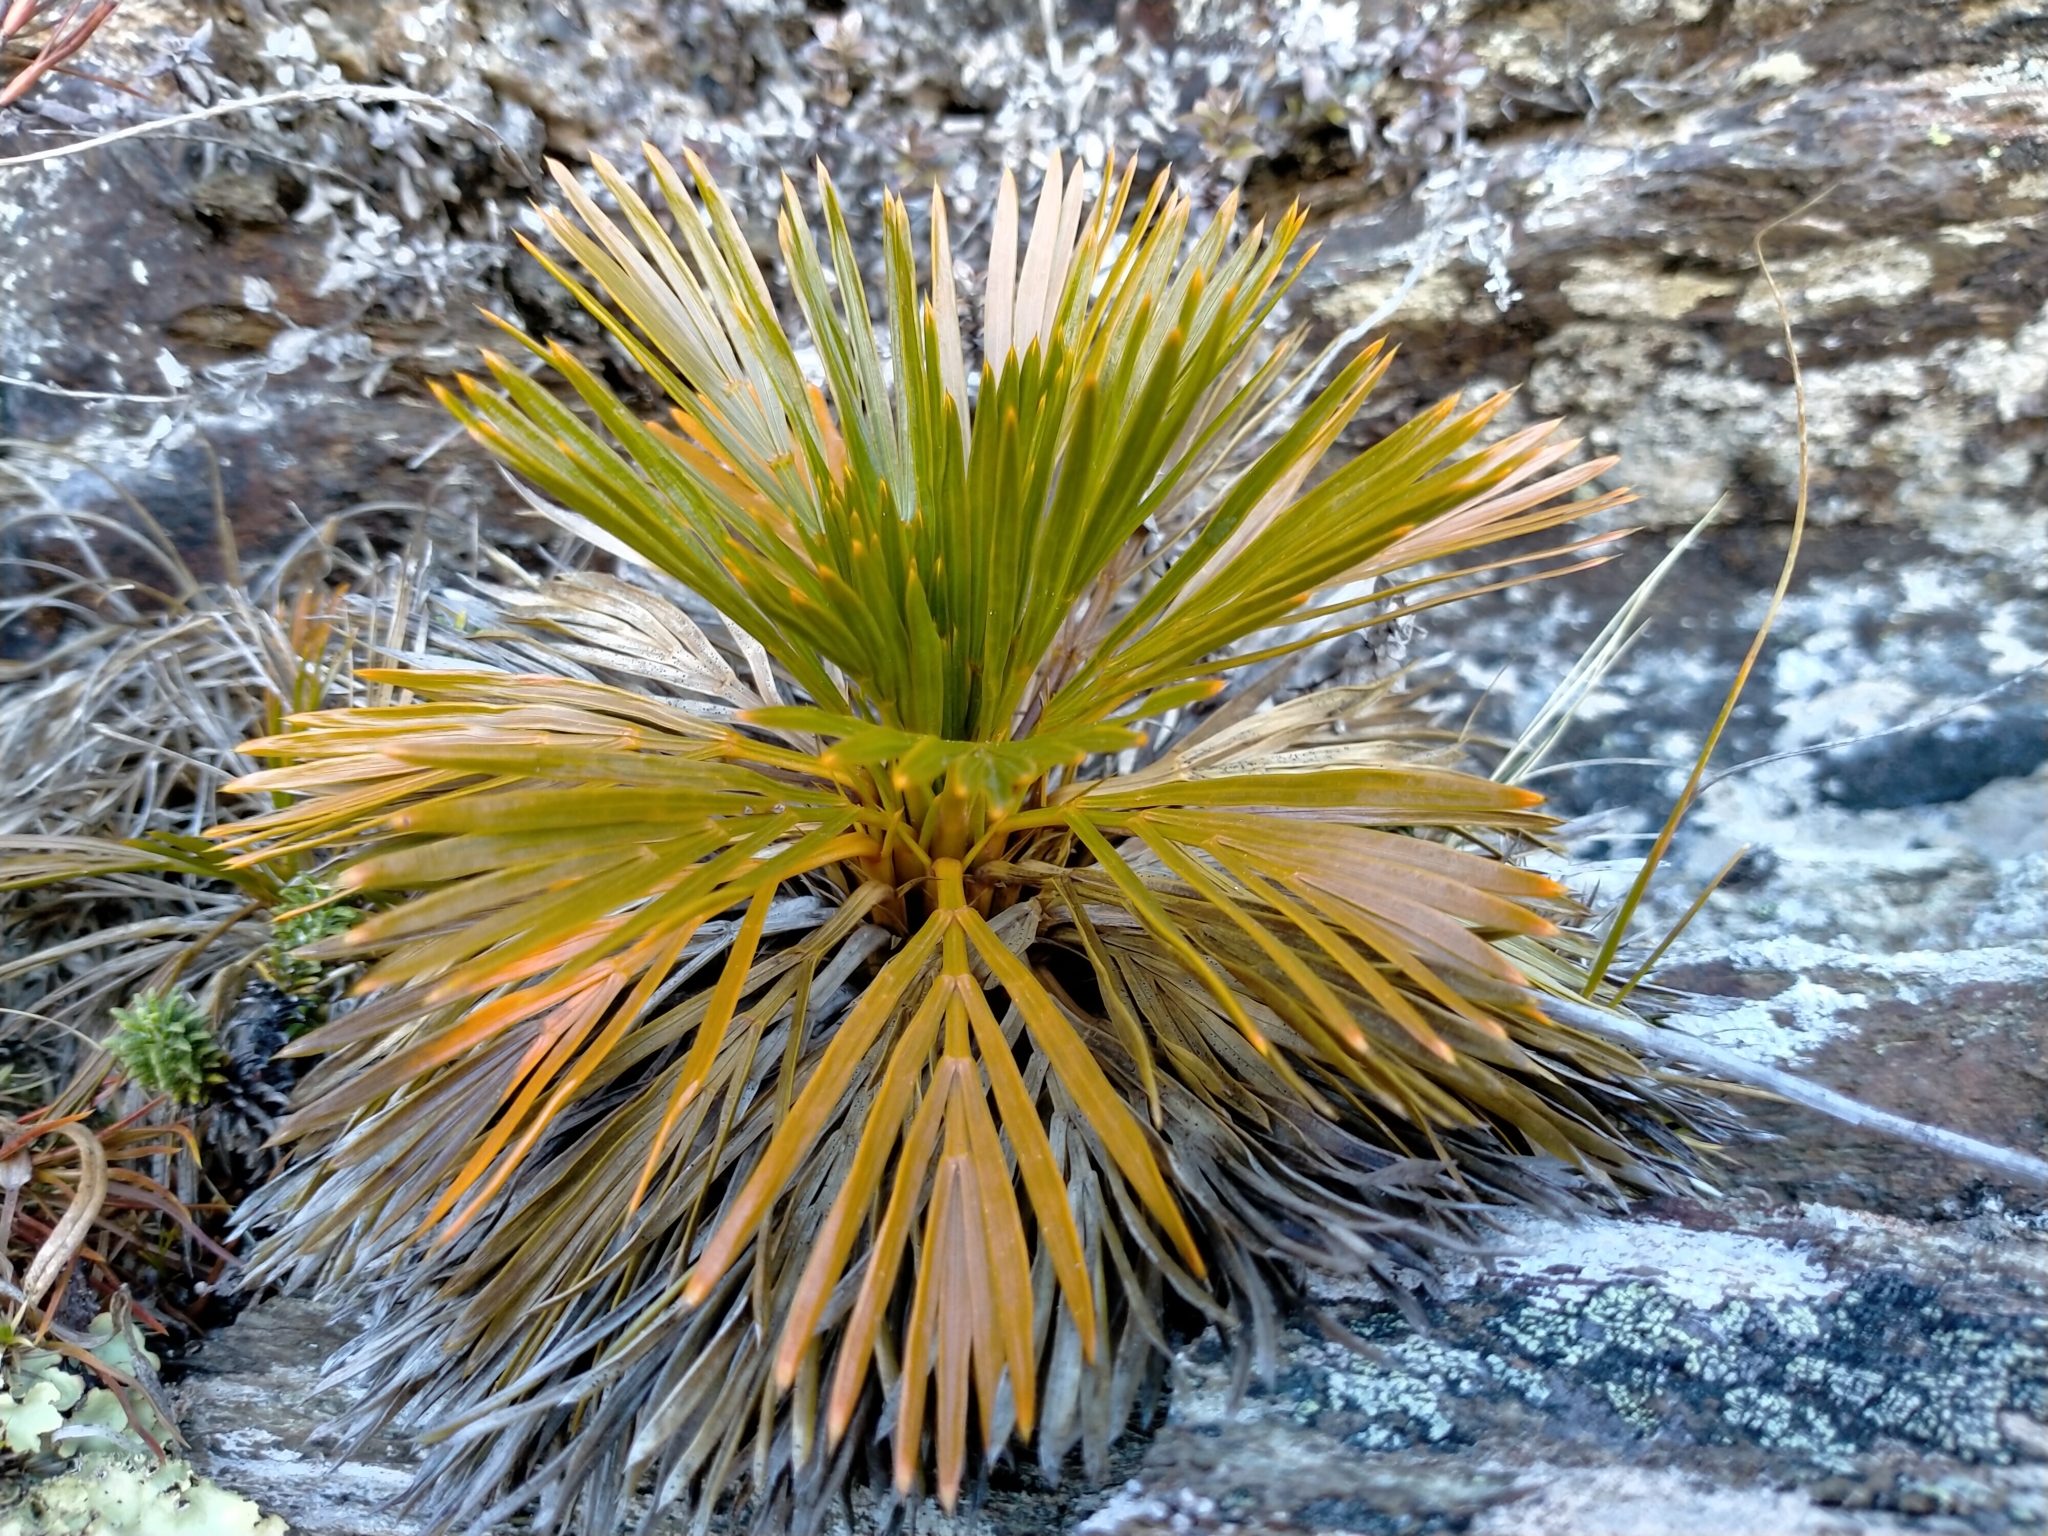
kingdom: Plantae
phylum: Tracheophyta
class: Magnoliopsida
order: Apiales
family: Apiaceae
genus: Aciphylla
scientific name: Aciphylla lecomtei
